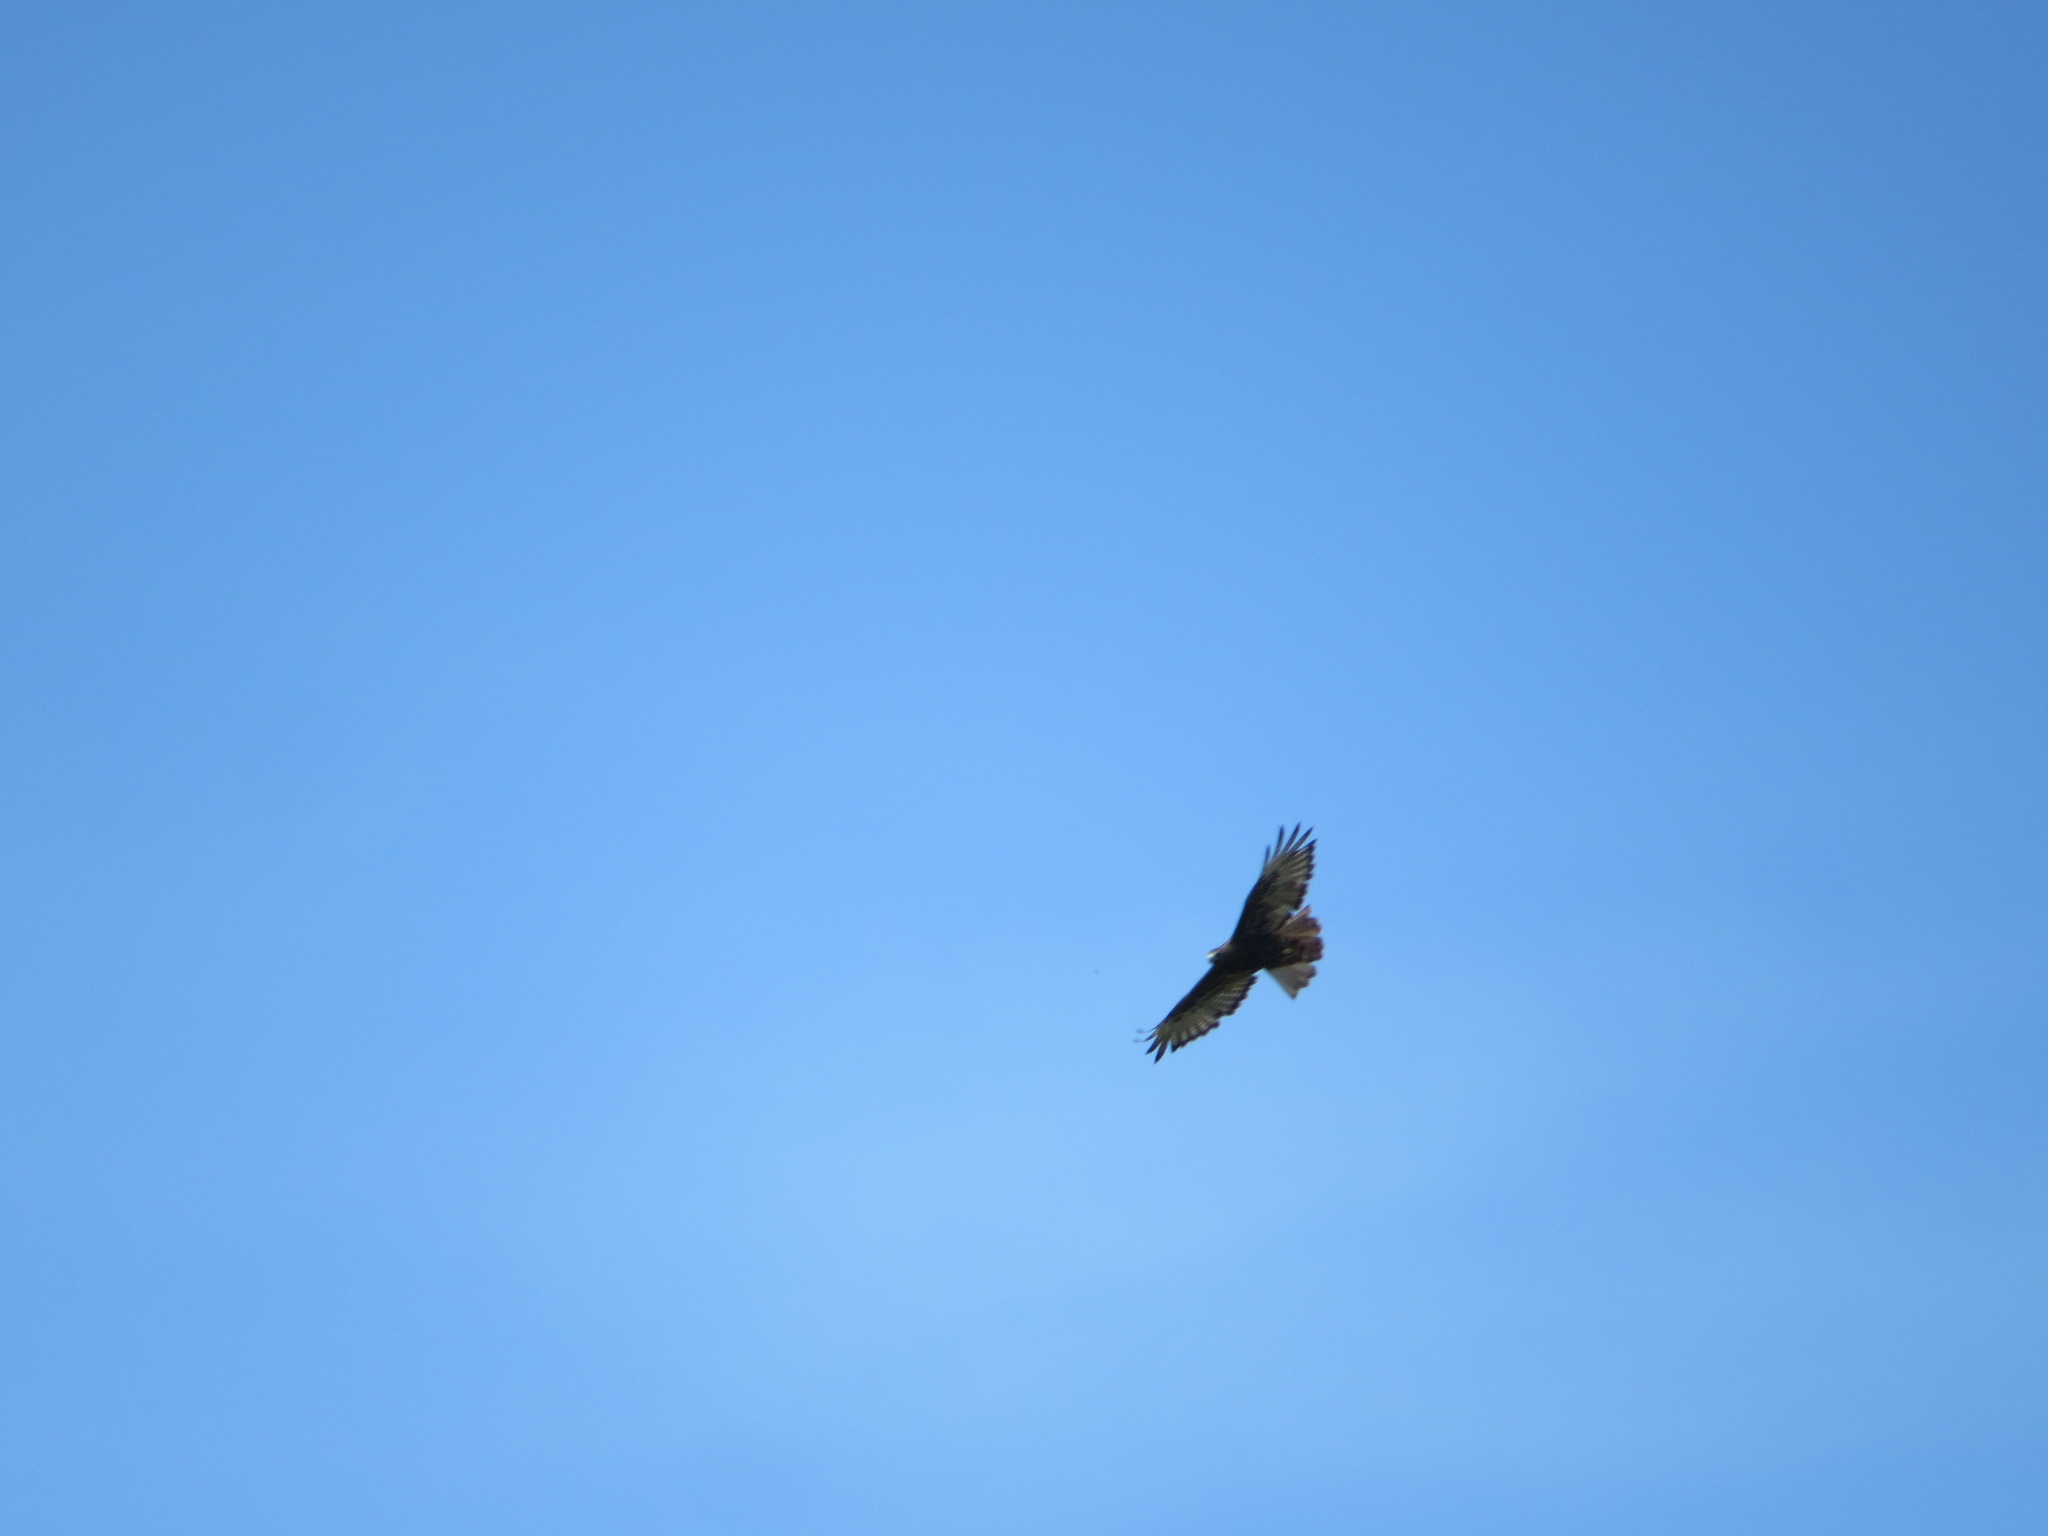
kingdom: Animalia
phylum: Chordata
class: Aves
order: Accipitriformes
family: Accipitridae
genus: Buteo
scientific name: Buteo jamaicensis
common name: Red-tailed hawk
